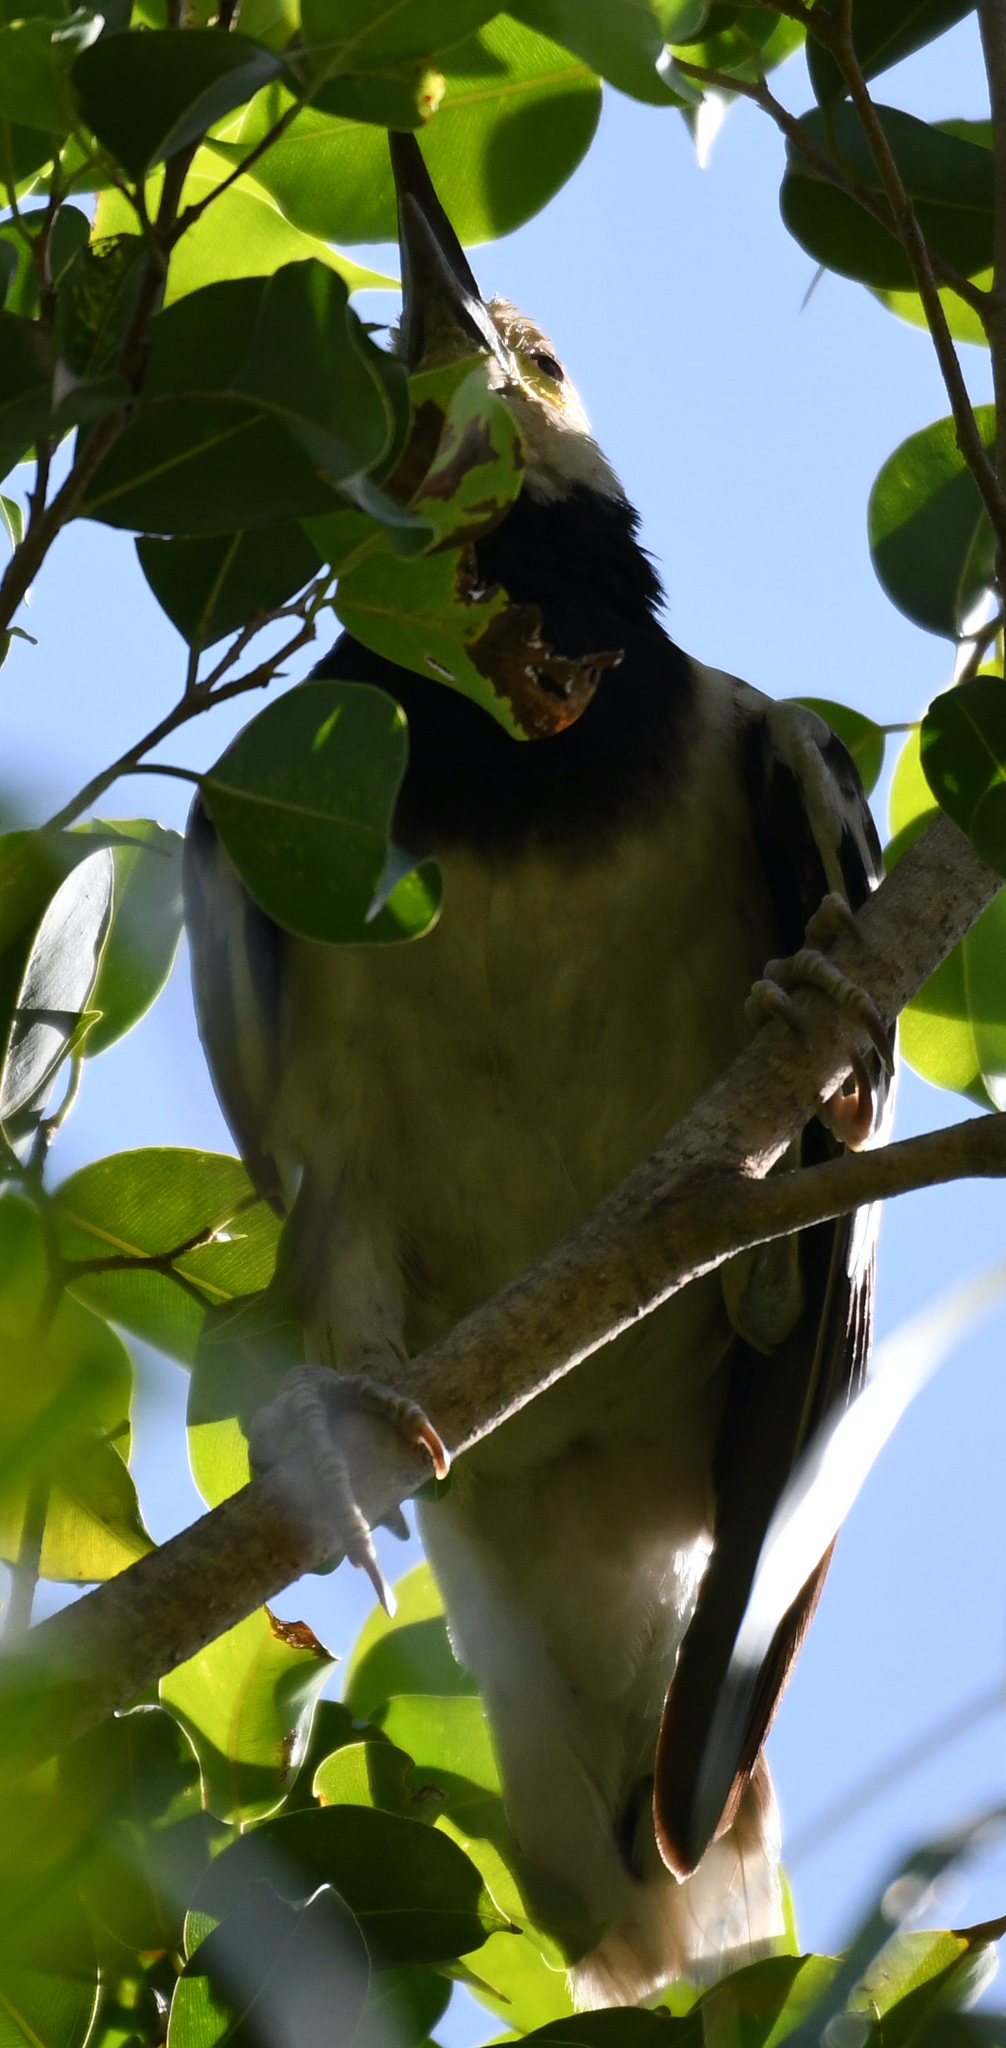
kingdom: Animalia
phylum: Chordata
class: Aves
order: Passeriformes
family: Sturnidae
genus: Gracupica
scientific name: Gracupica nigricollis
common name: Black-collared starling
